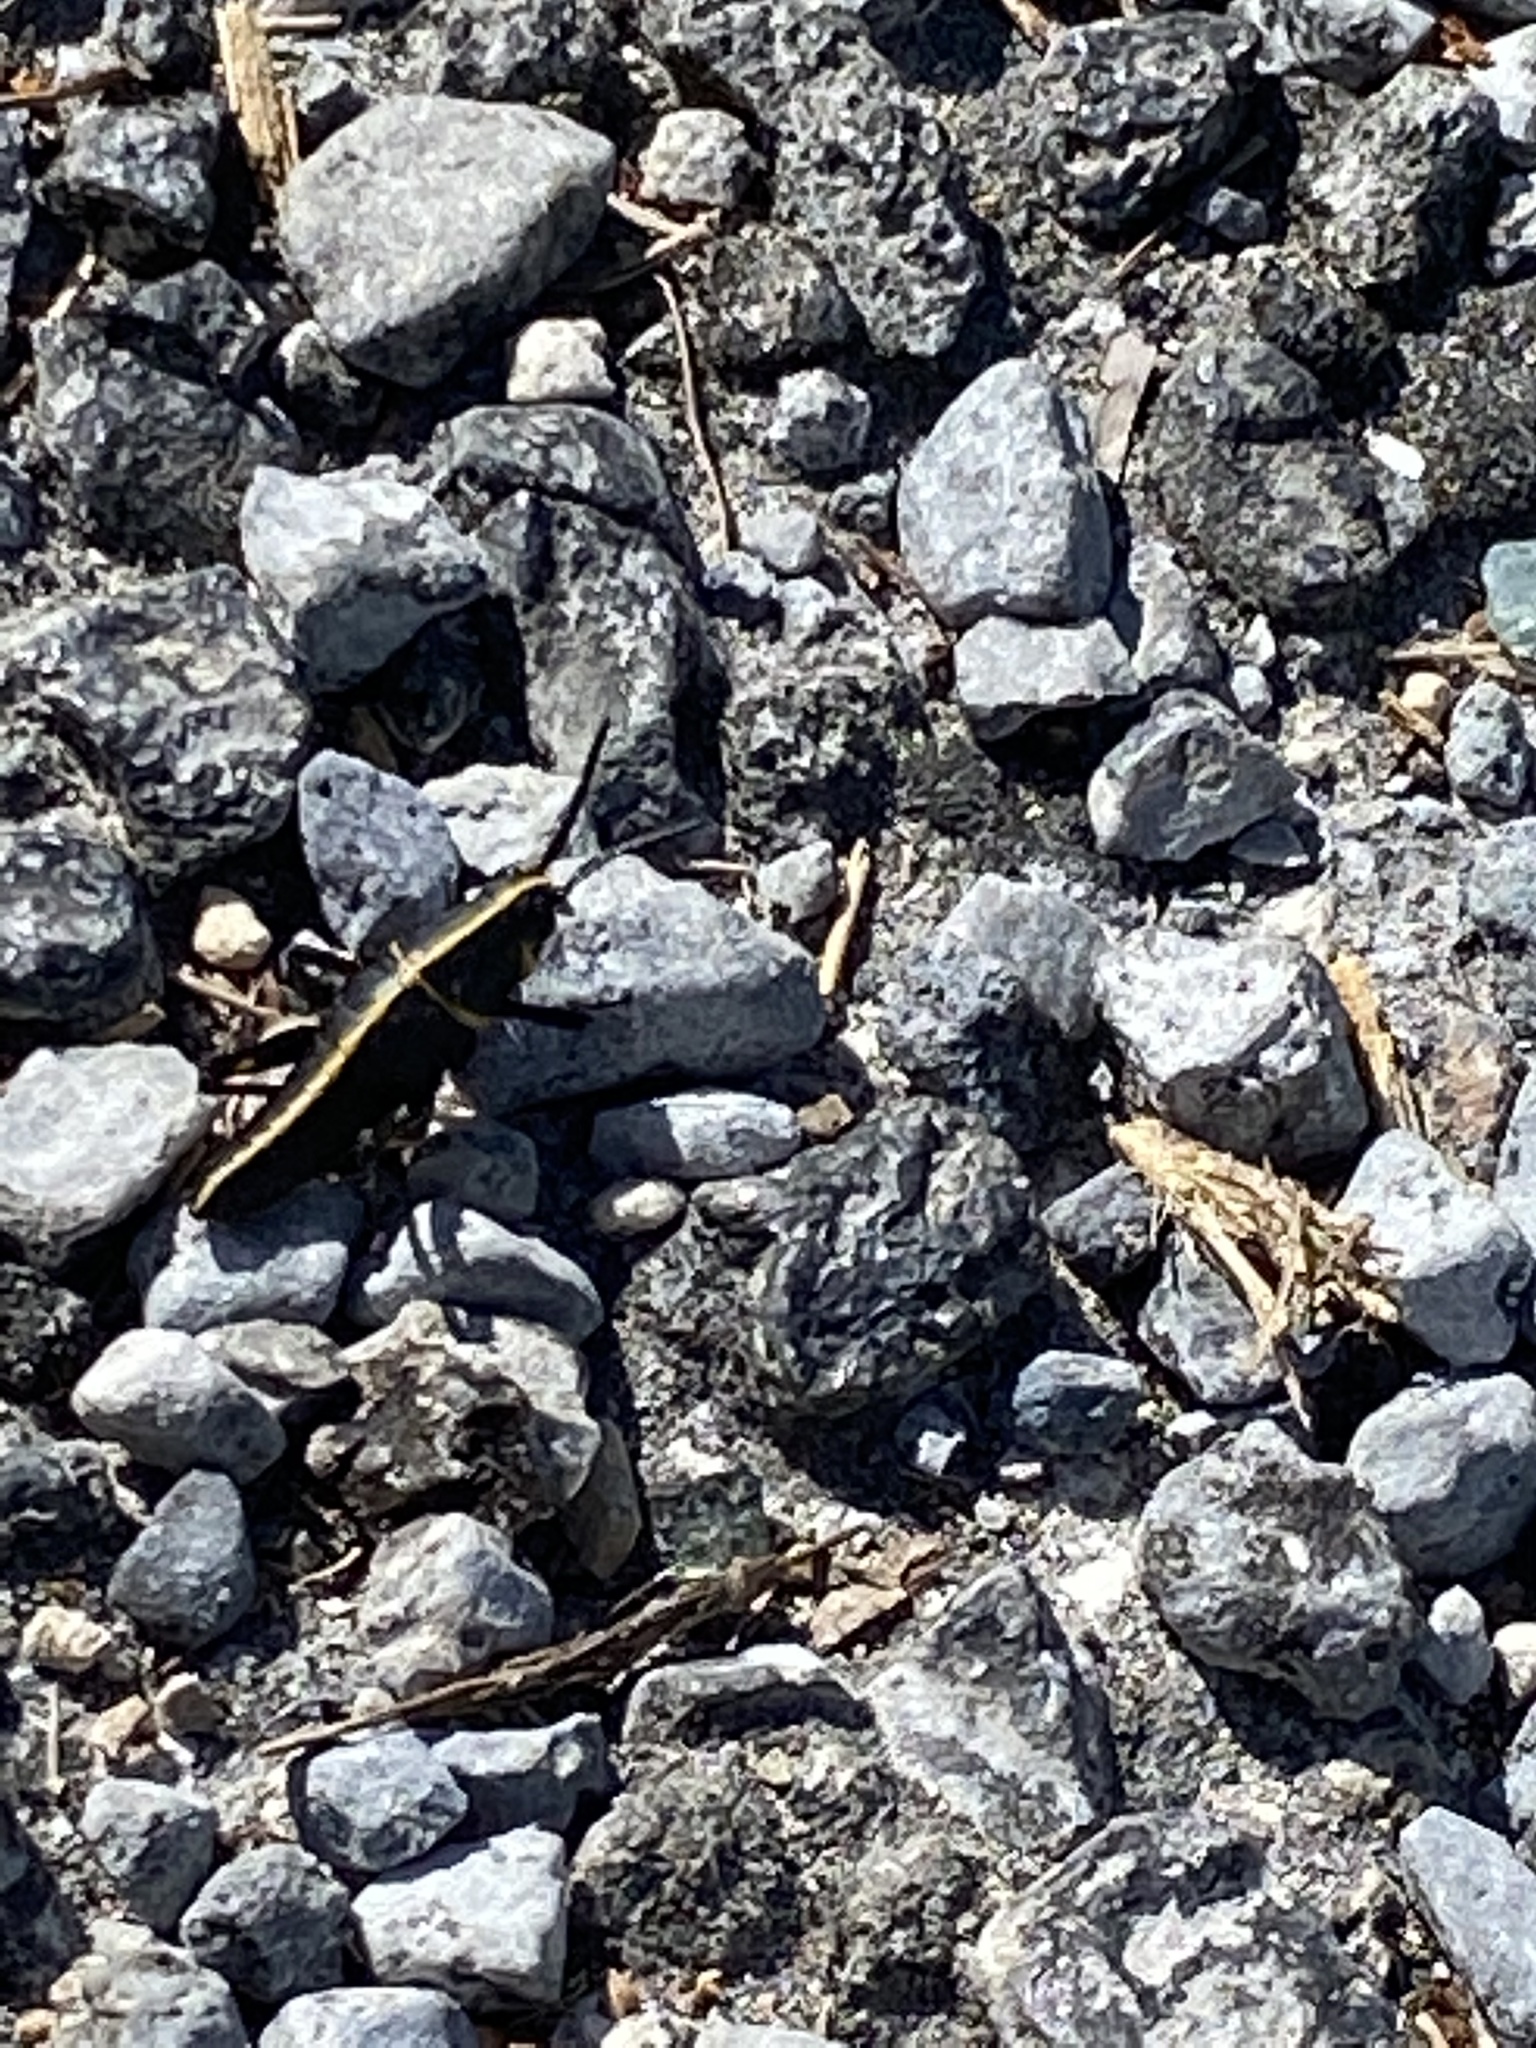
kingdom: Animalia
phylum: Arthropoda
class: Insecta
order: Orthoptera
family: Romaleidae
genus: Romalea
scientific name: Romalea microptera
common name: Eastern lubber grasshopper
